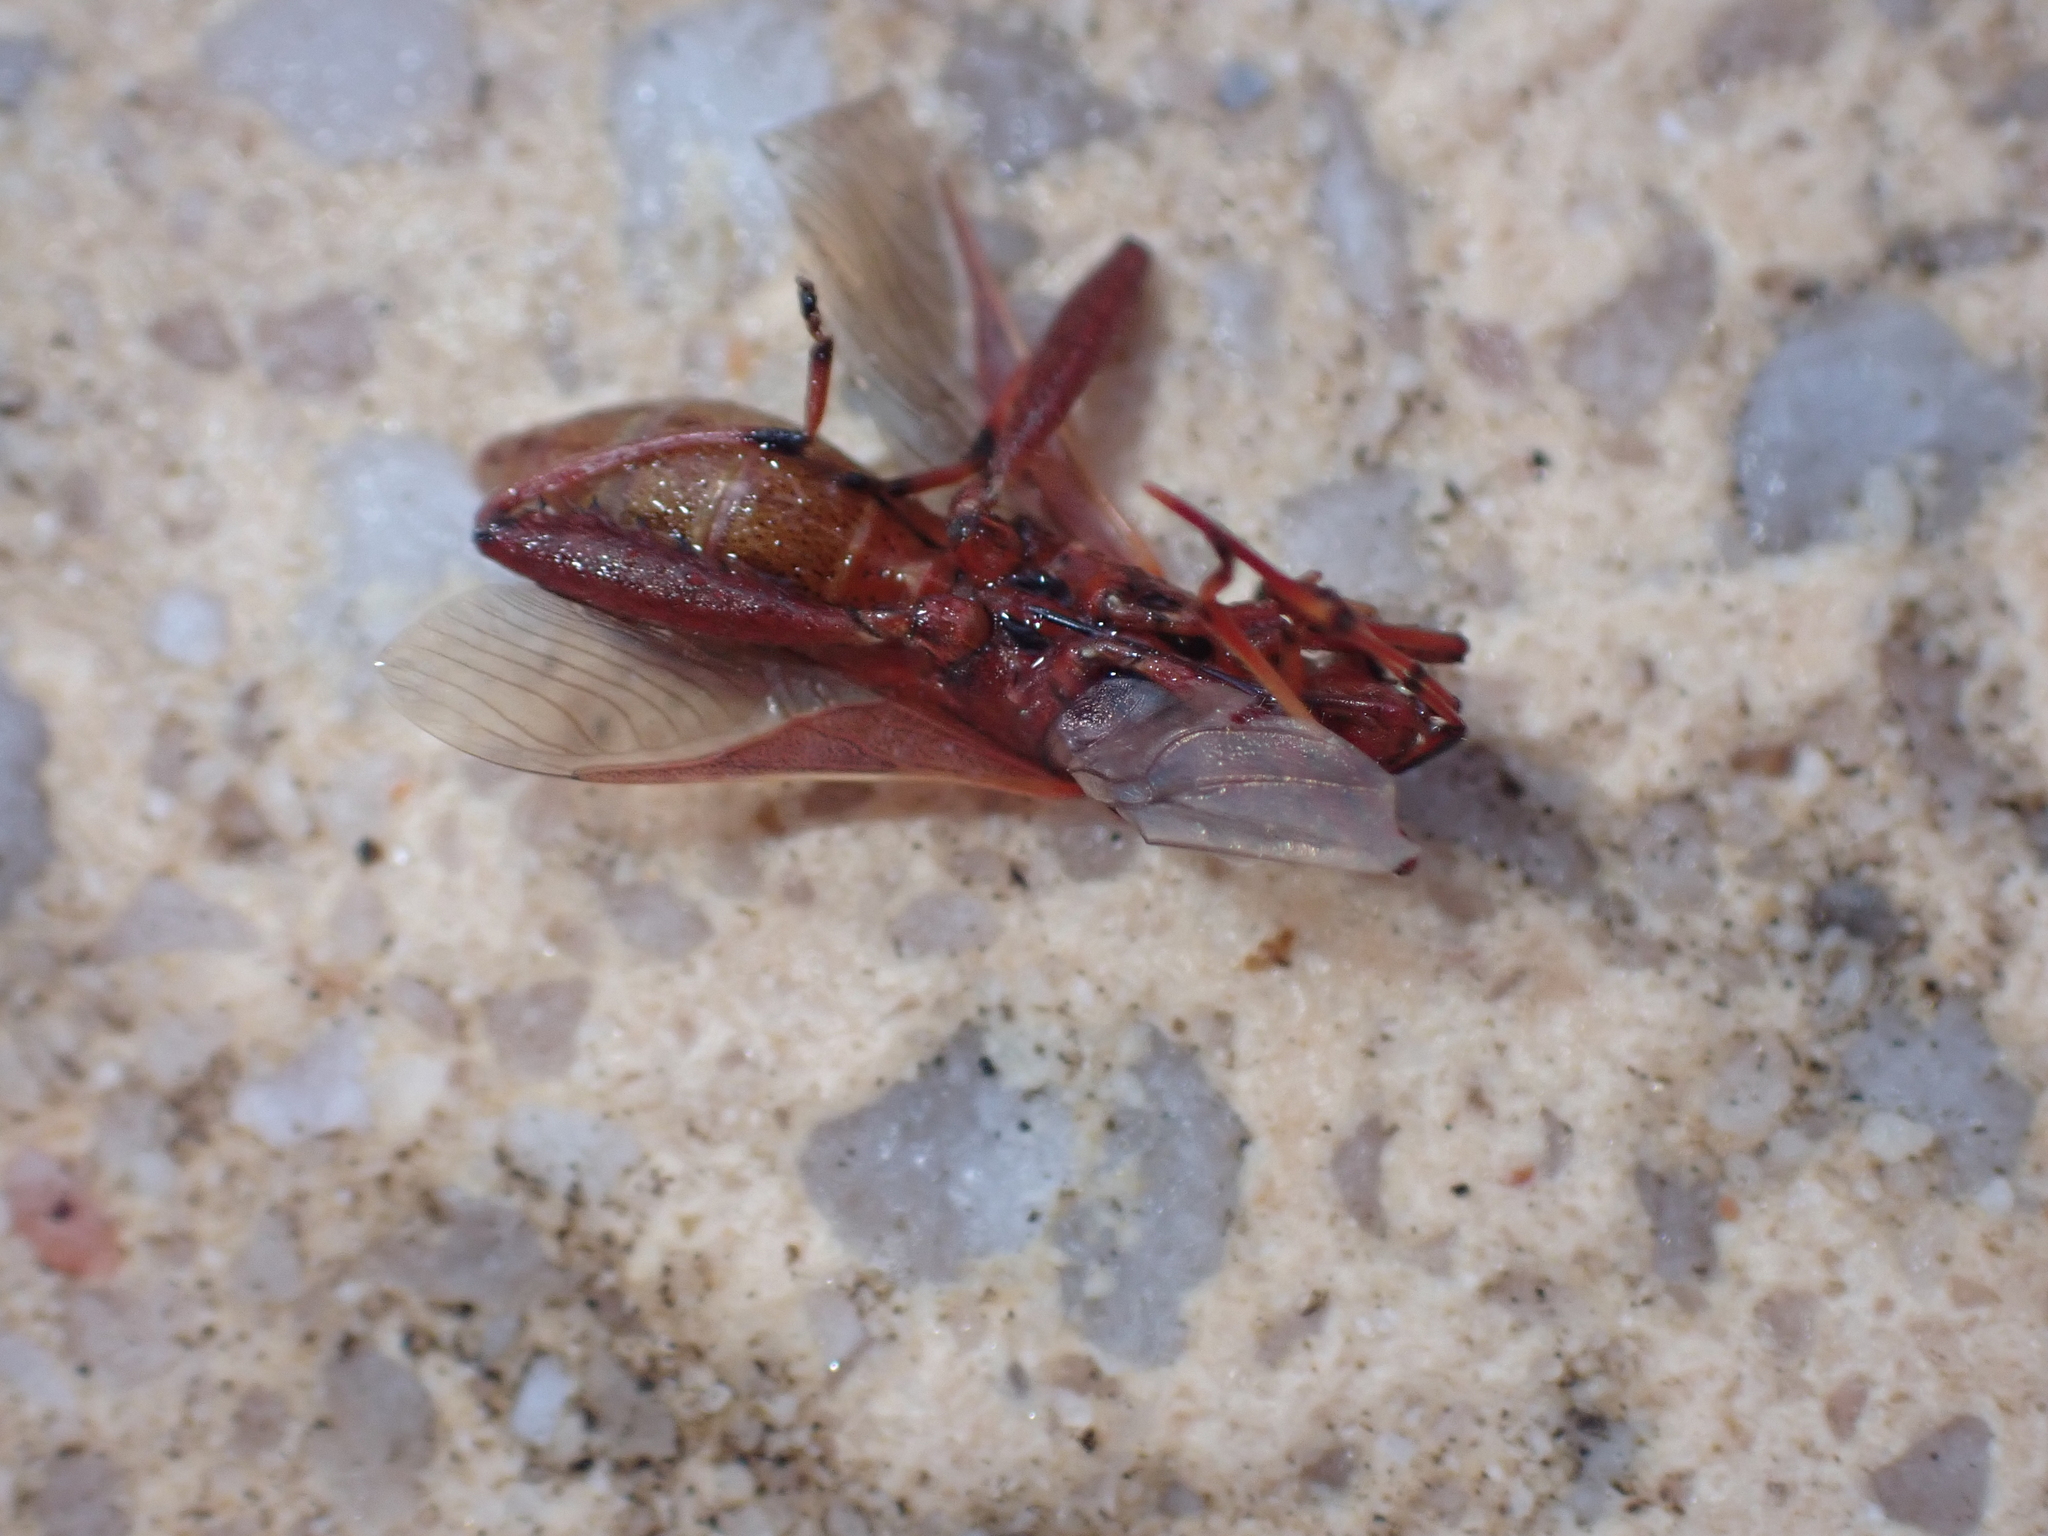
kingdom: Animalia
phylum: Arthropoda
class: Insecta
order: Hemiptera
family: Alydidae
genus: Camptopus
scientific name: Camptopus lateralis
